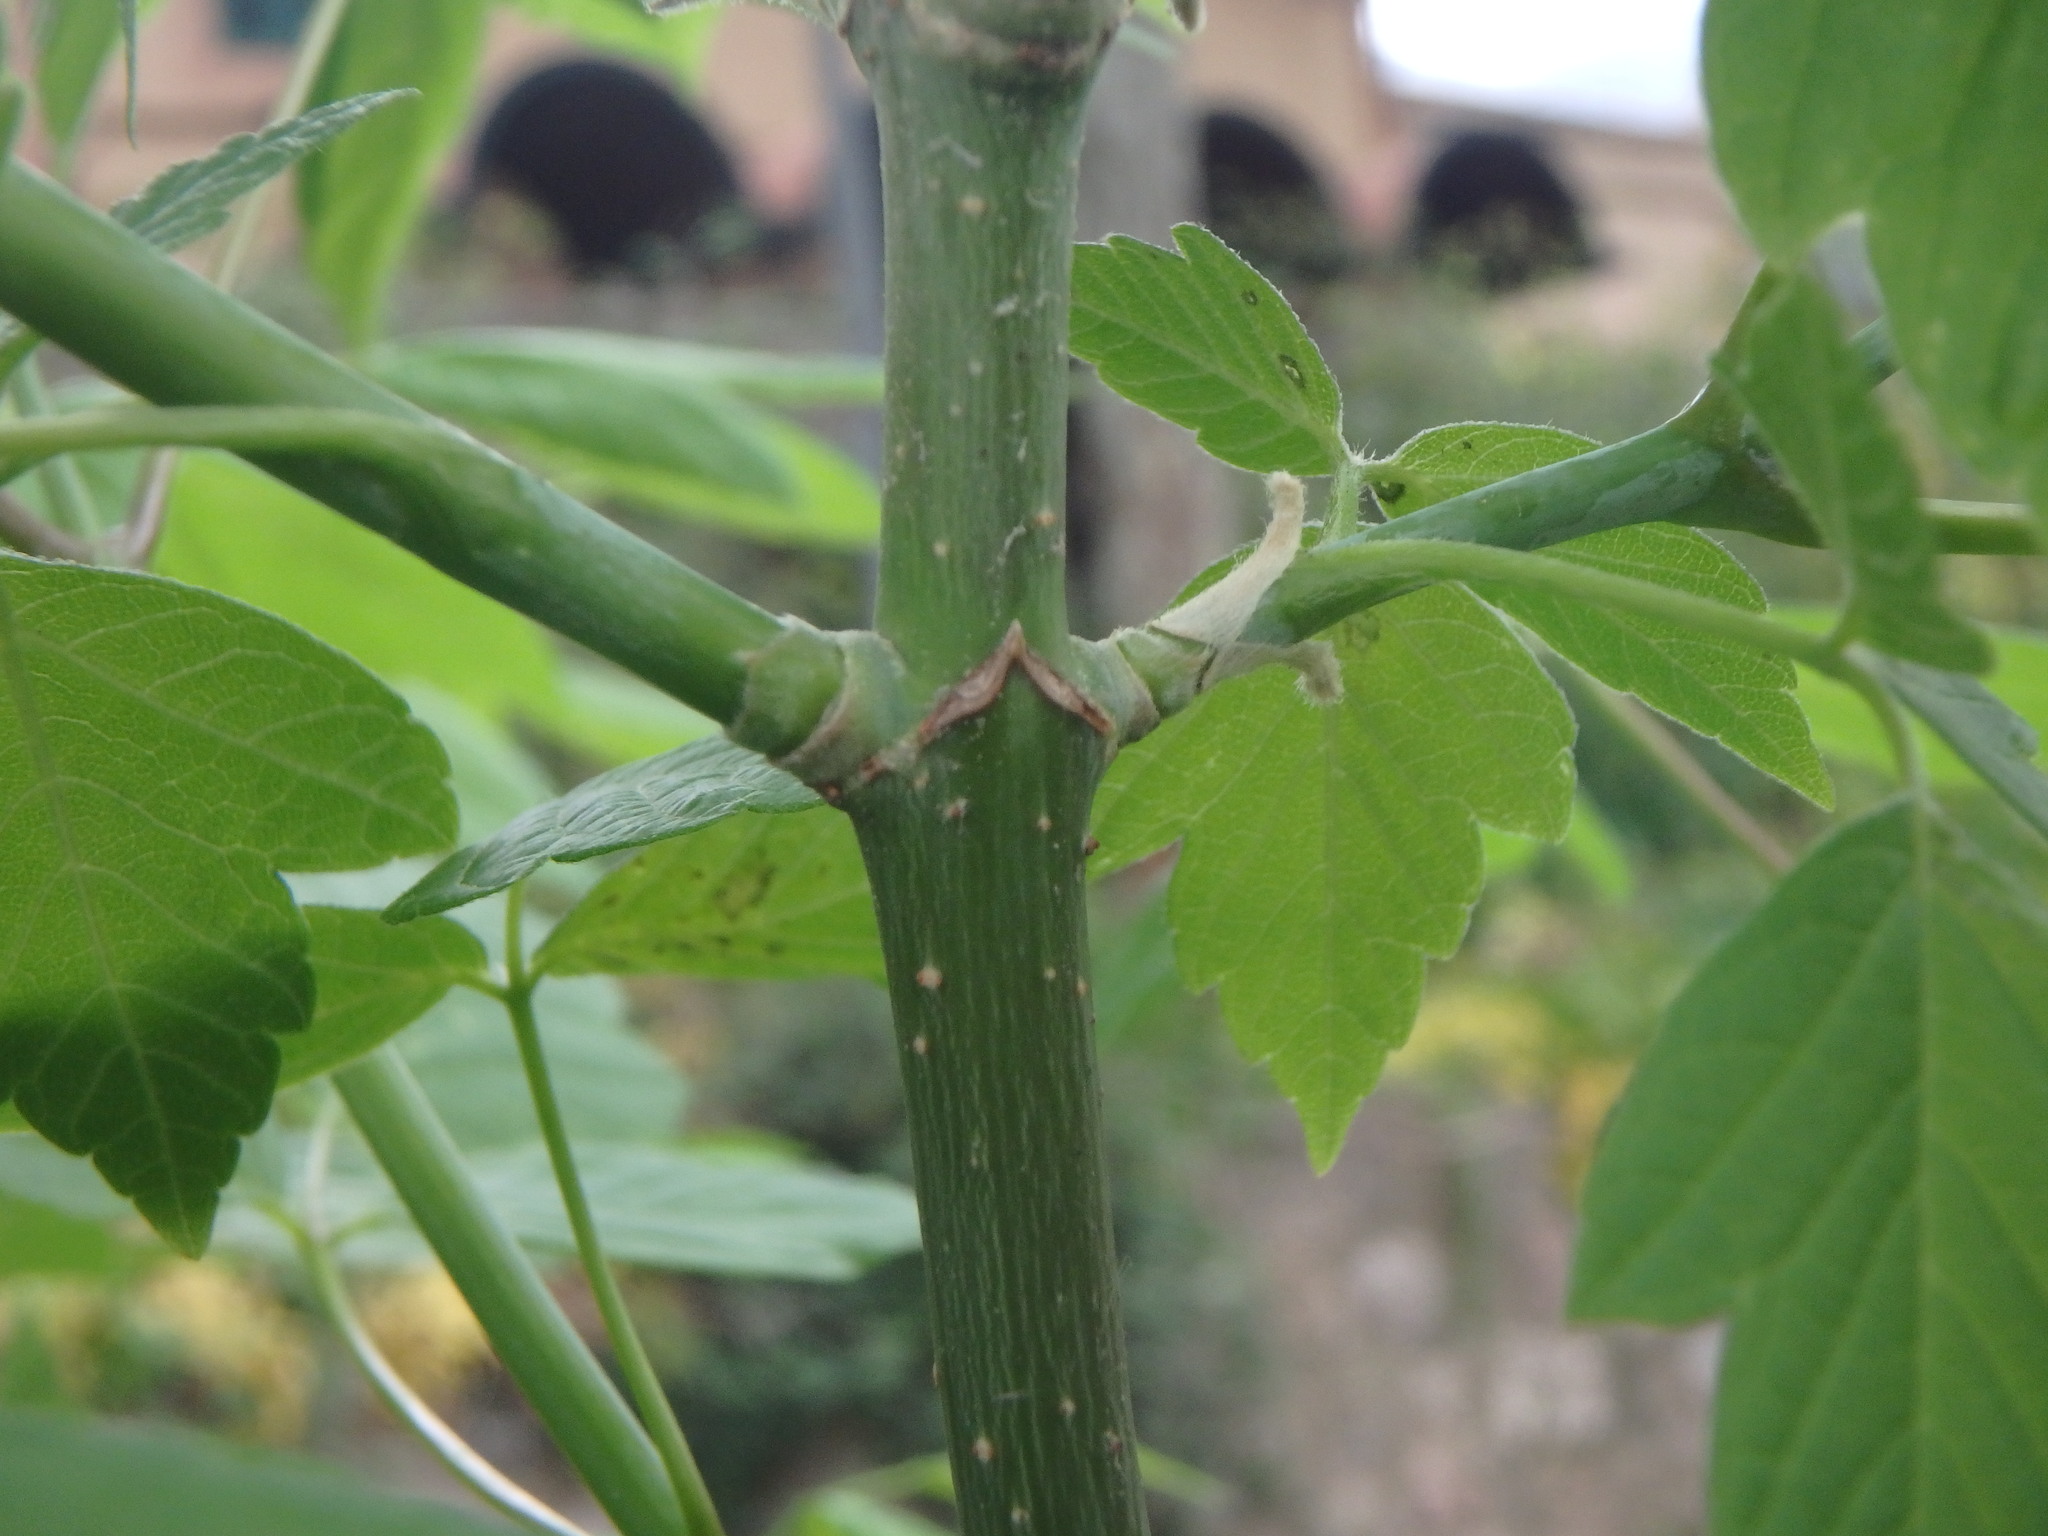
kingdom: Plantae
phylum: Tracheophyta
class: Magnoliopsida
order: Sapindales
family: Sapindaceae
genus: Acer
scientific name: Acer negundo
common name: Ashleaf maple
